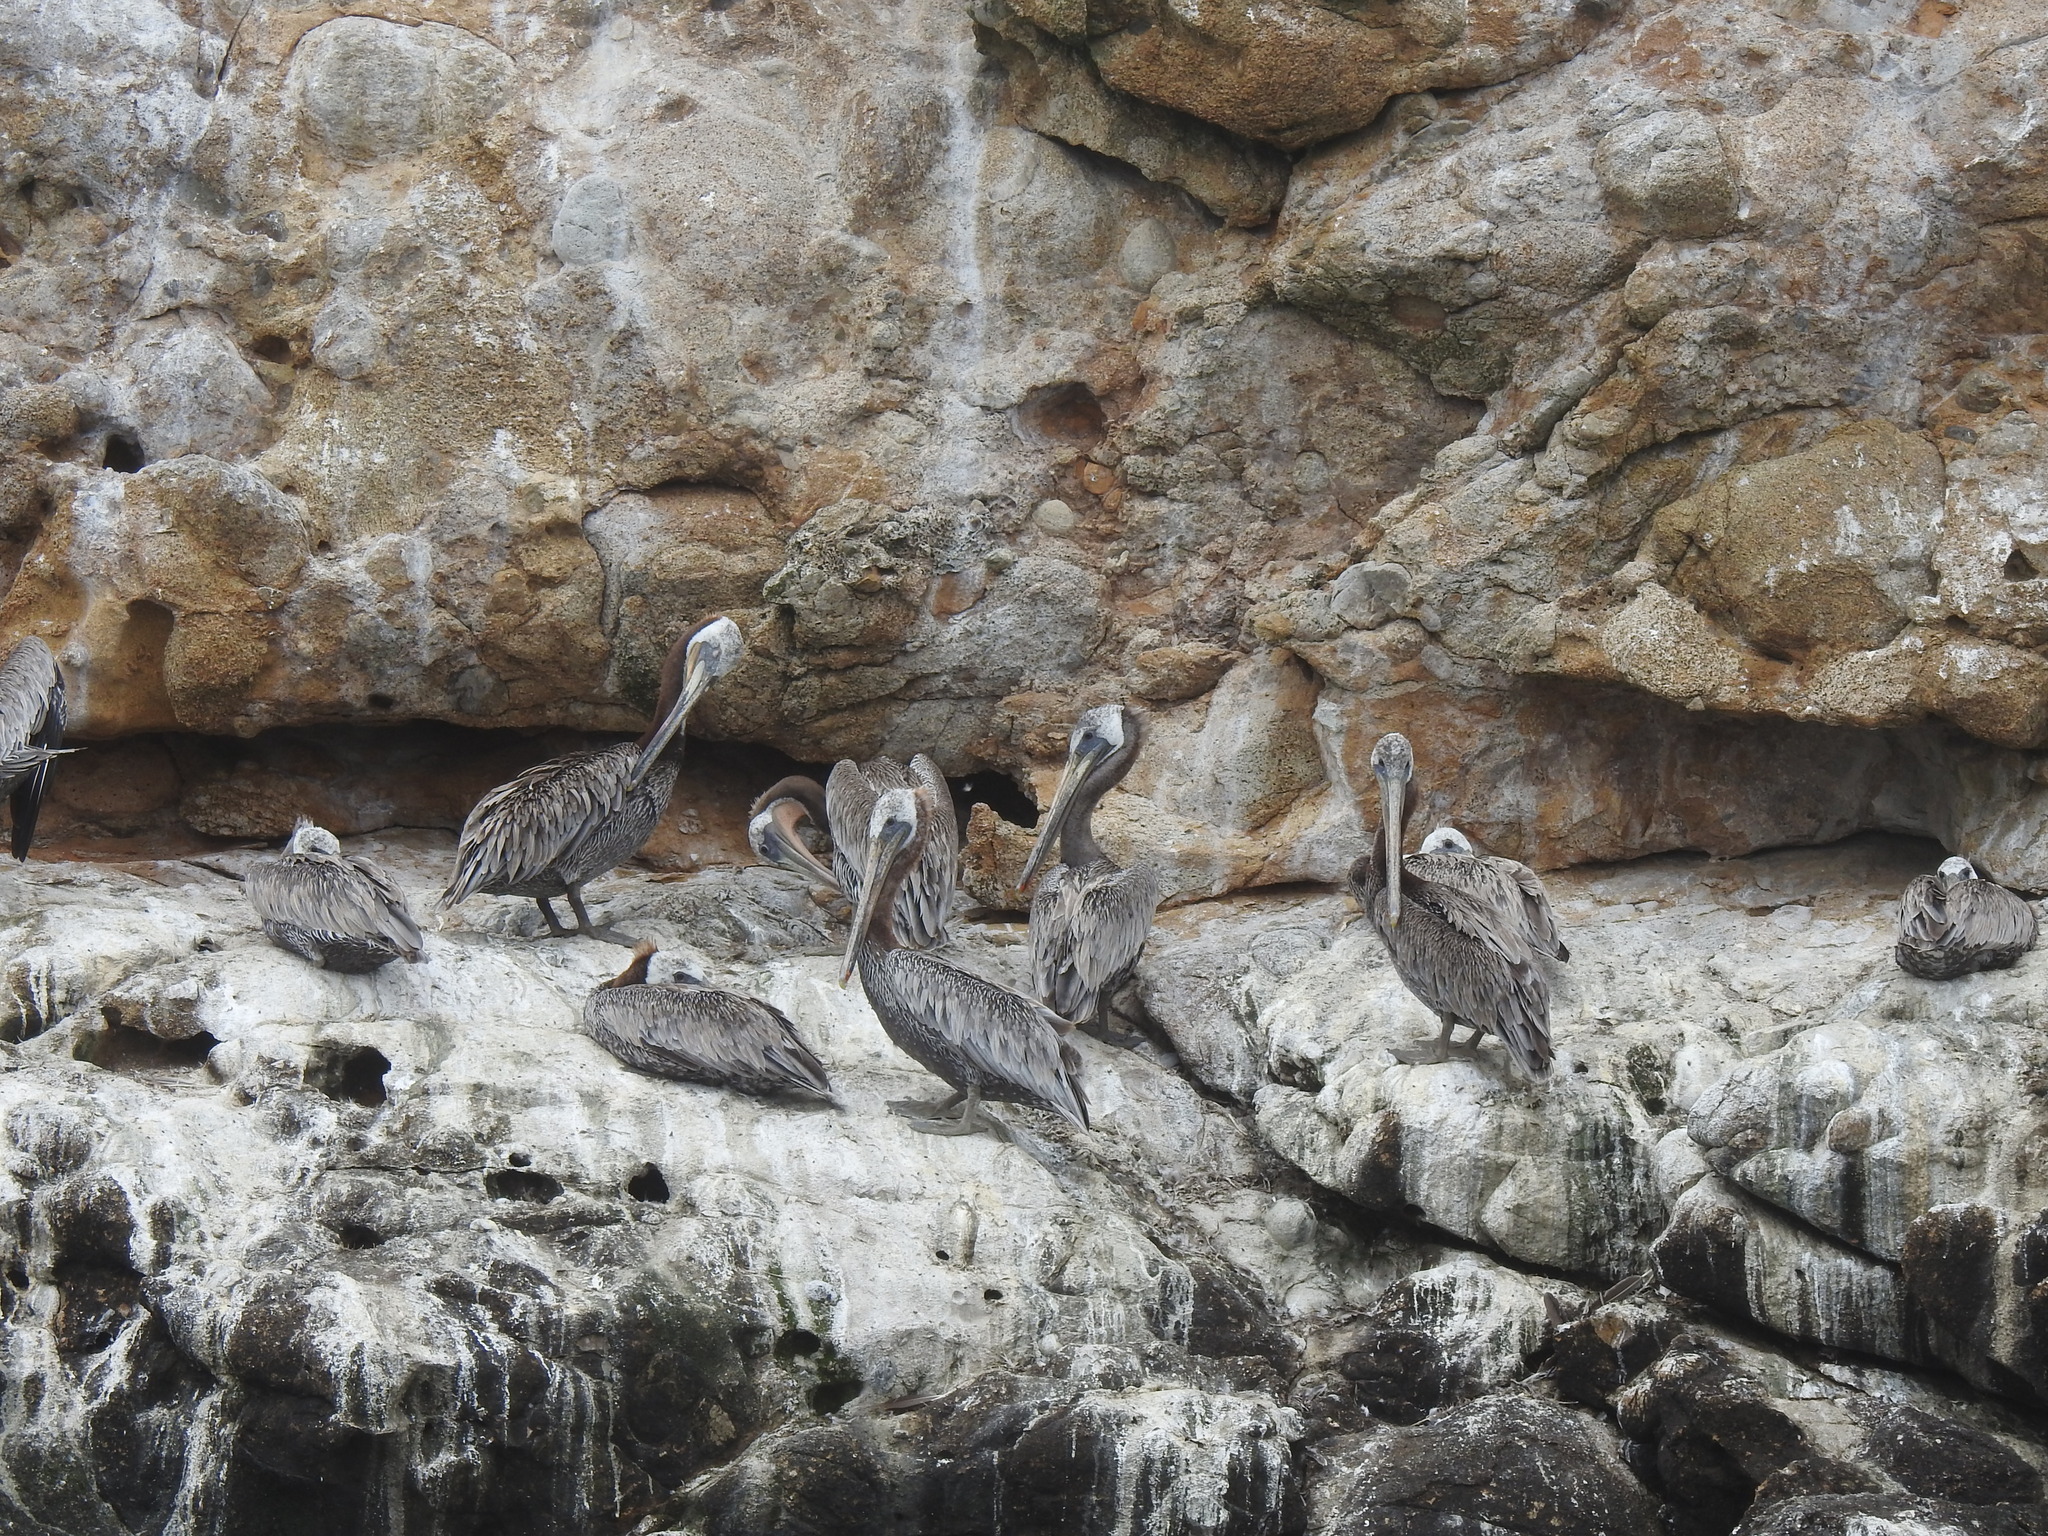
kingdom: Animalia
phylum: Chordata
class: Aves
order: Pelecaniformes
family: Pelecanidae
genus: Pelecanus
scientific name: Pelecanus occidentalis
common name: Brown pelican
